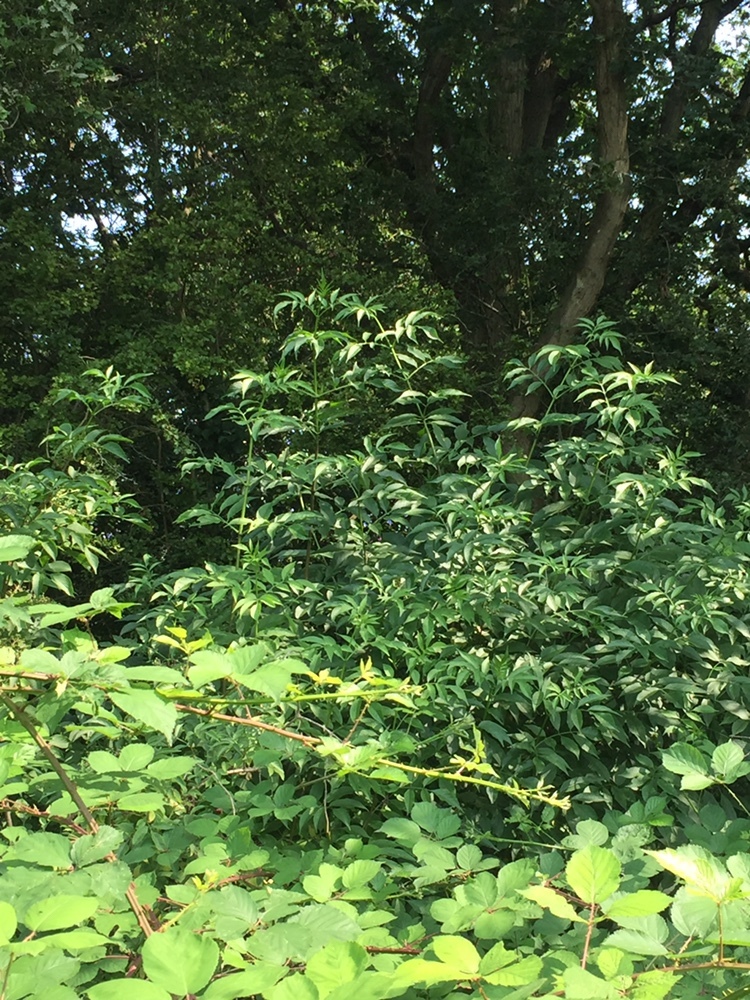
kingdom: Plantae
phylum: Tracheophyta
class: Magnoliopsida
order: Dipsacales
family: Viburnaceae
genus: Sambucus
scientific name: Sambucus nigra
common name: Elder
